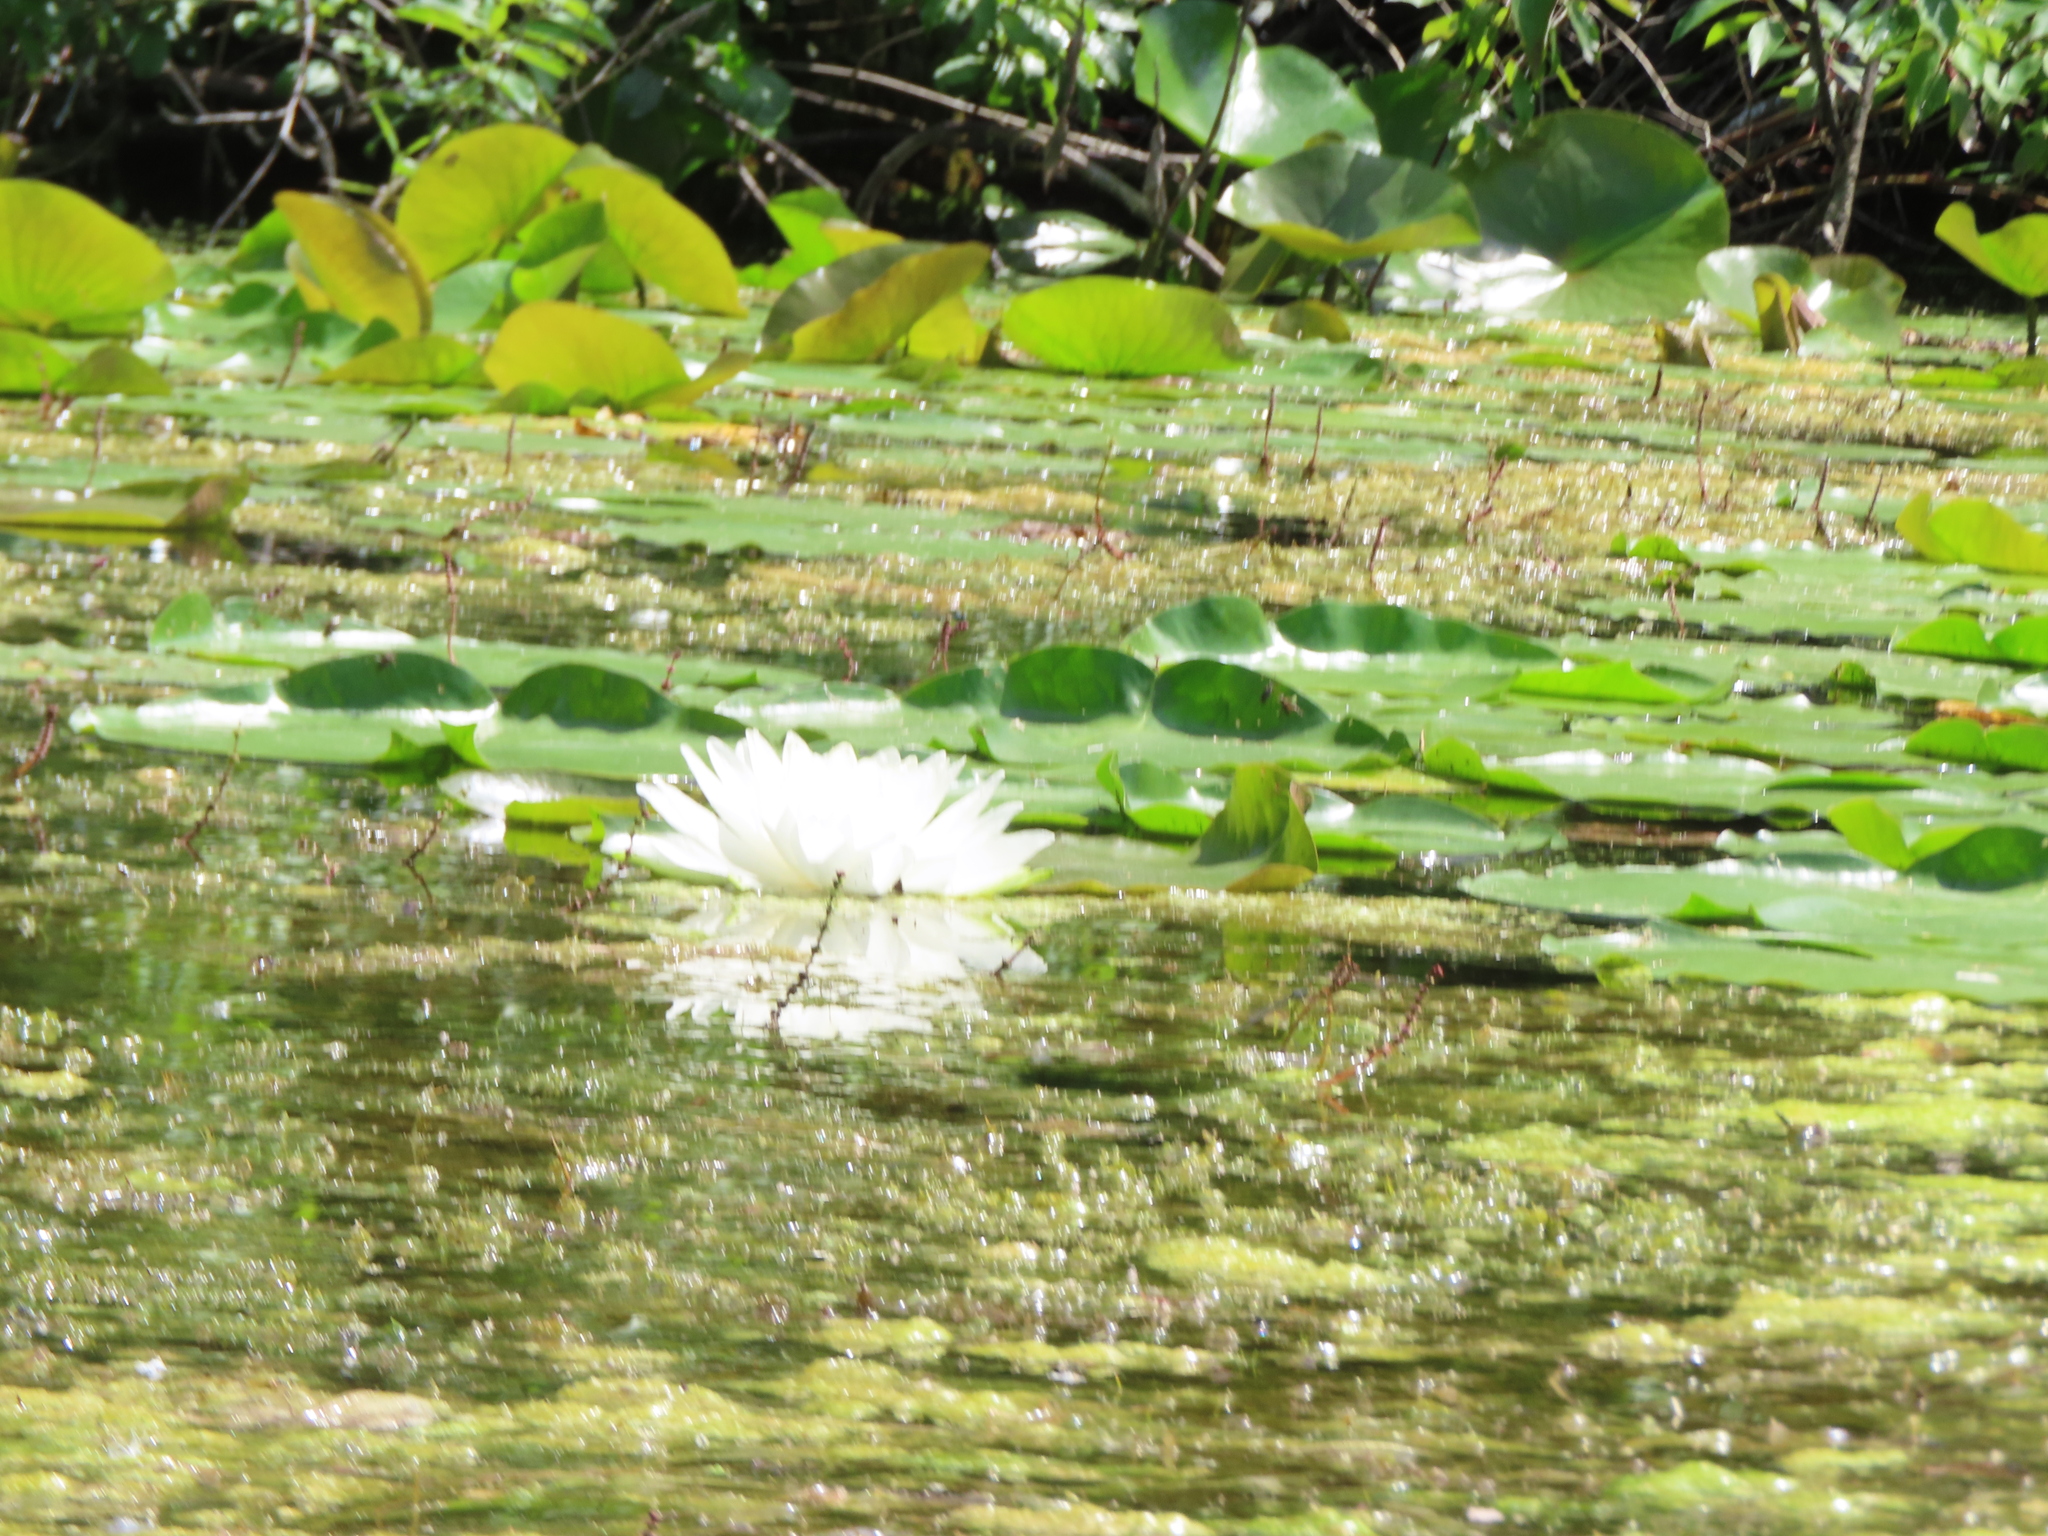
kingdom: Plantae
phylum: Tracheophyta
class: Magnoliopsida
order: Nymphaeales
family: Nymphaeaceae
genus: Nymphaea
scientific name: Nymphaea odorata
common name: Fragrant water-lily
